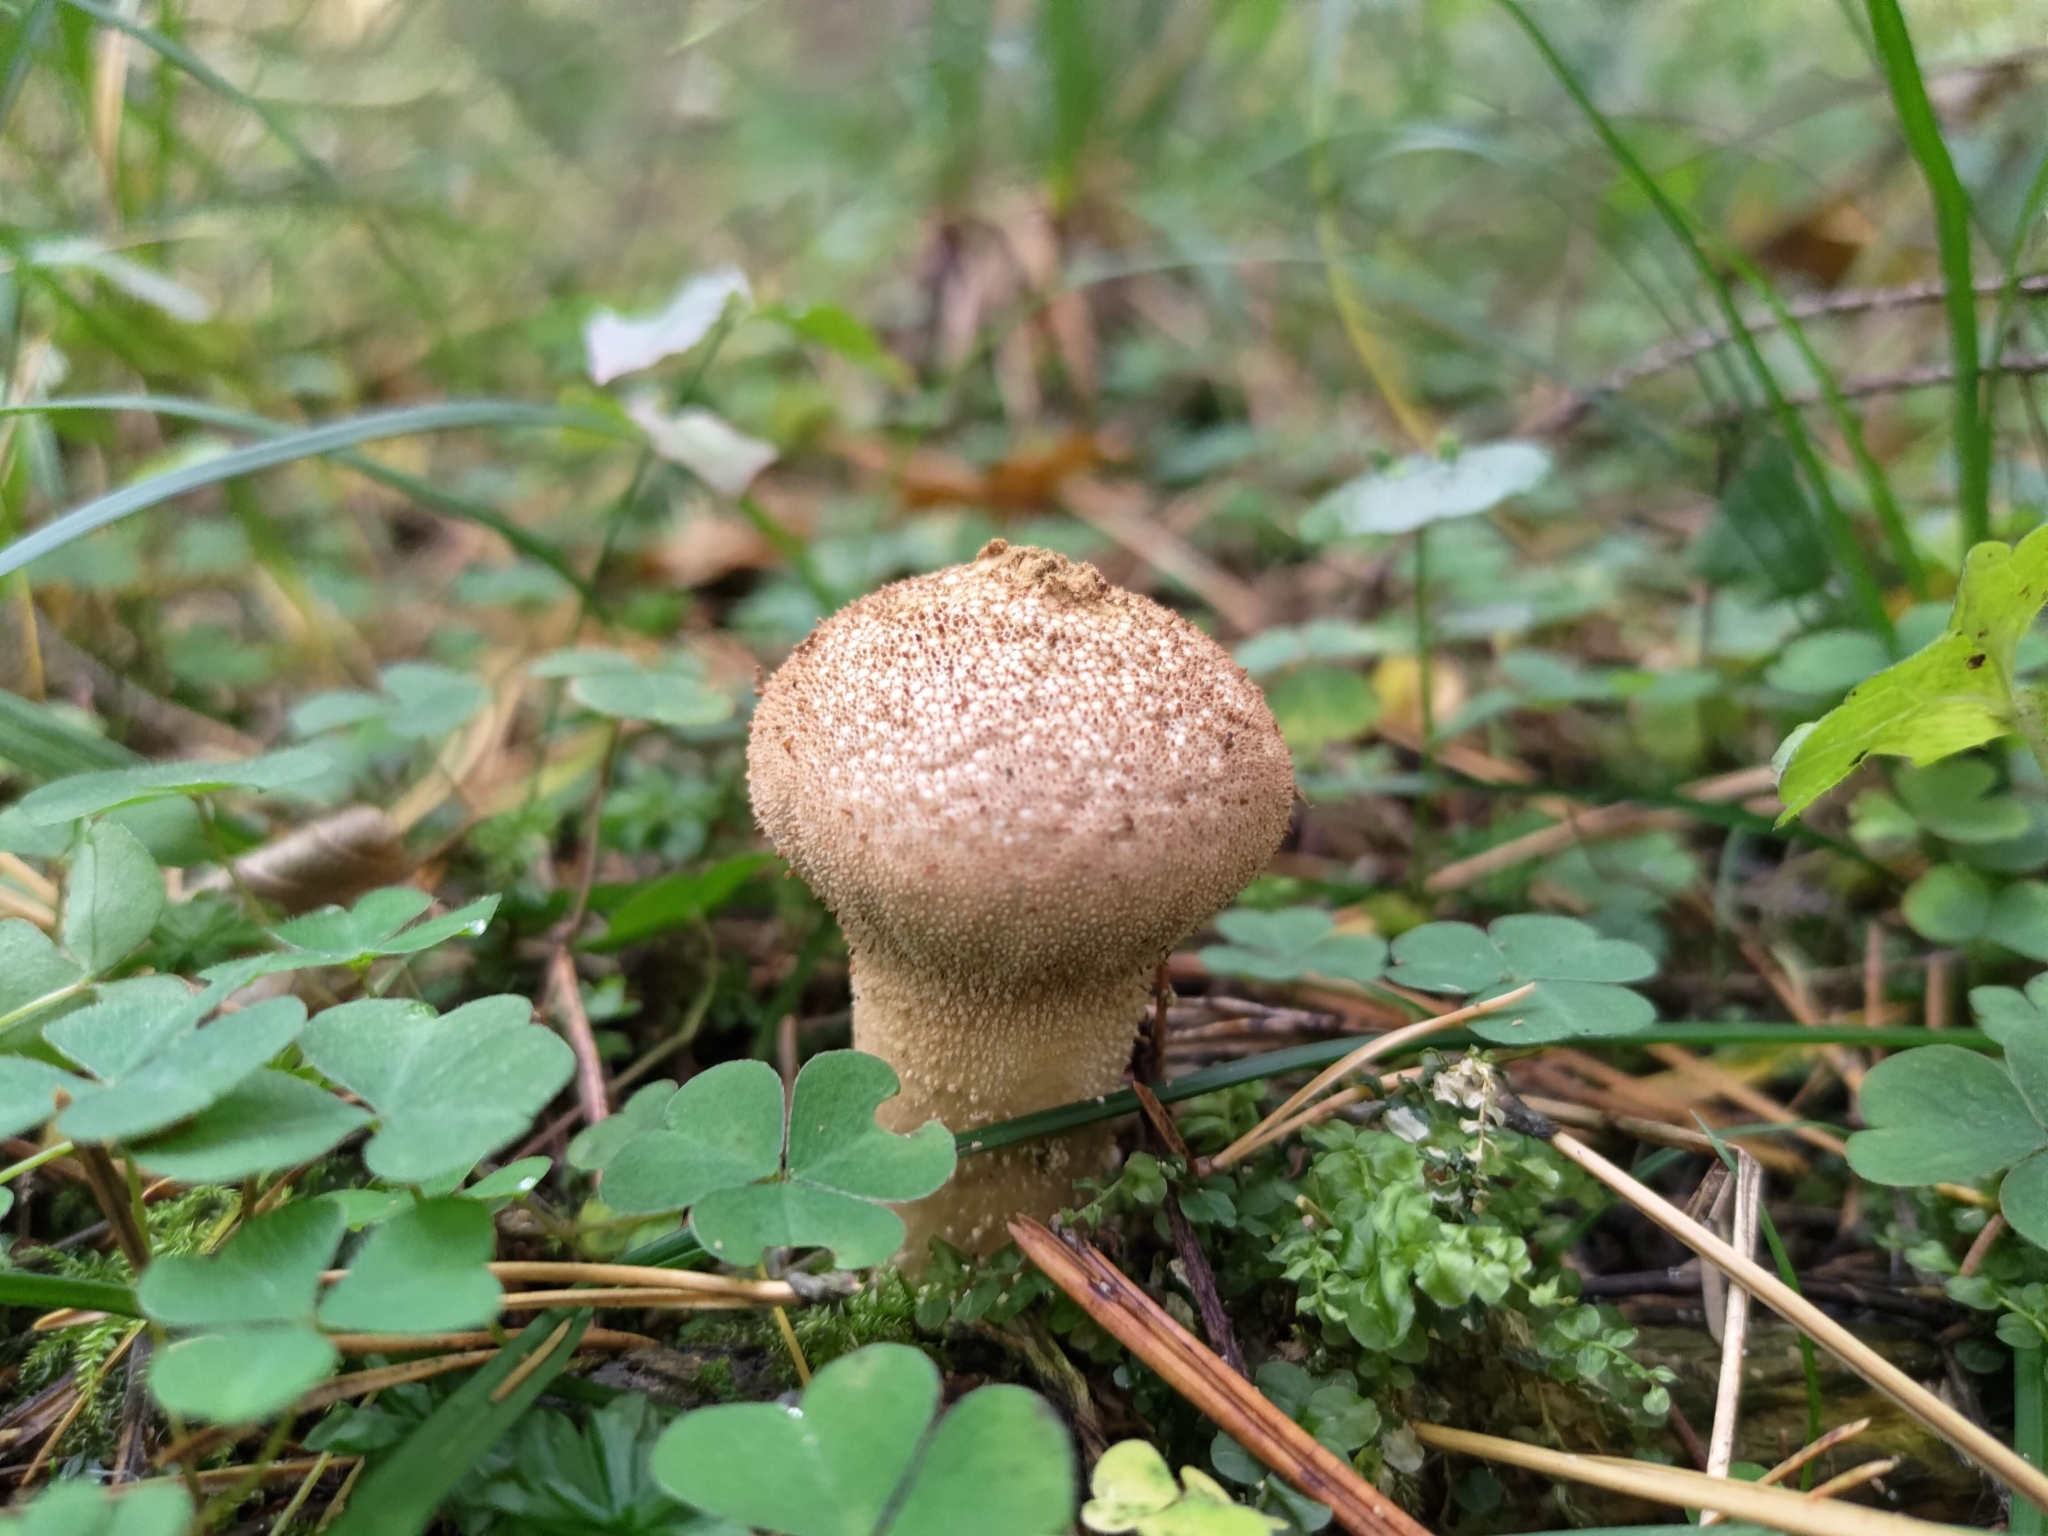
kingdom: Fungi
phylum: Basidiomycota
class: Agaricomycetes
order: Agaricales
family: Lycoperdaceae
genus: Lycoperdon
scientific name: Lycoperdon perlatum
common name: Common puffball
